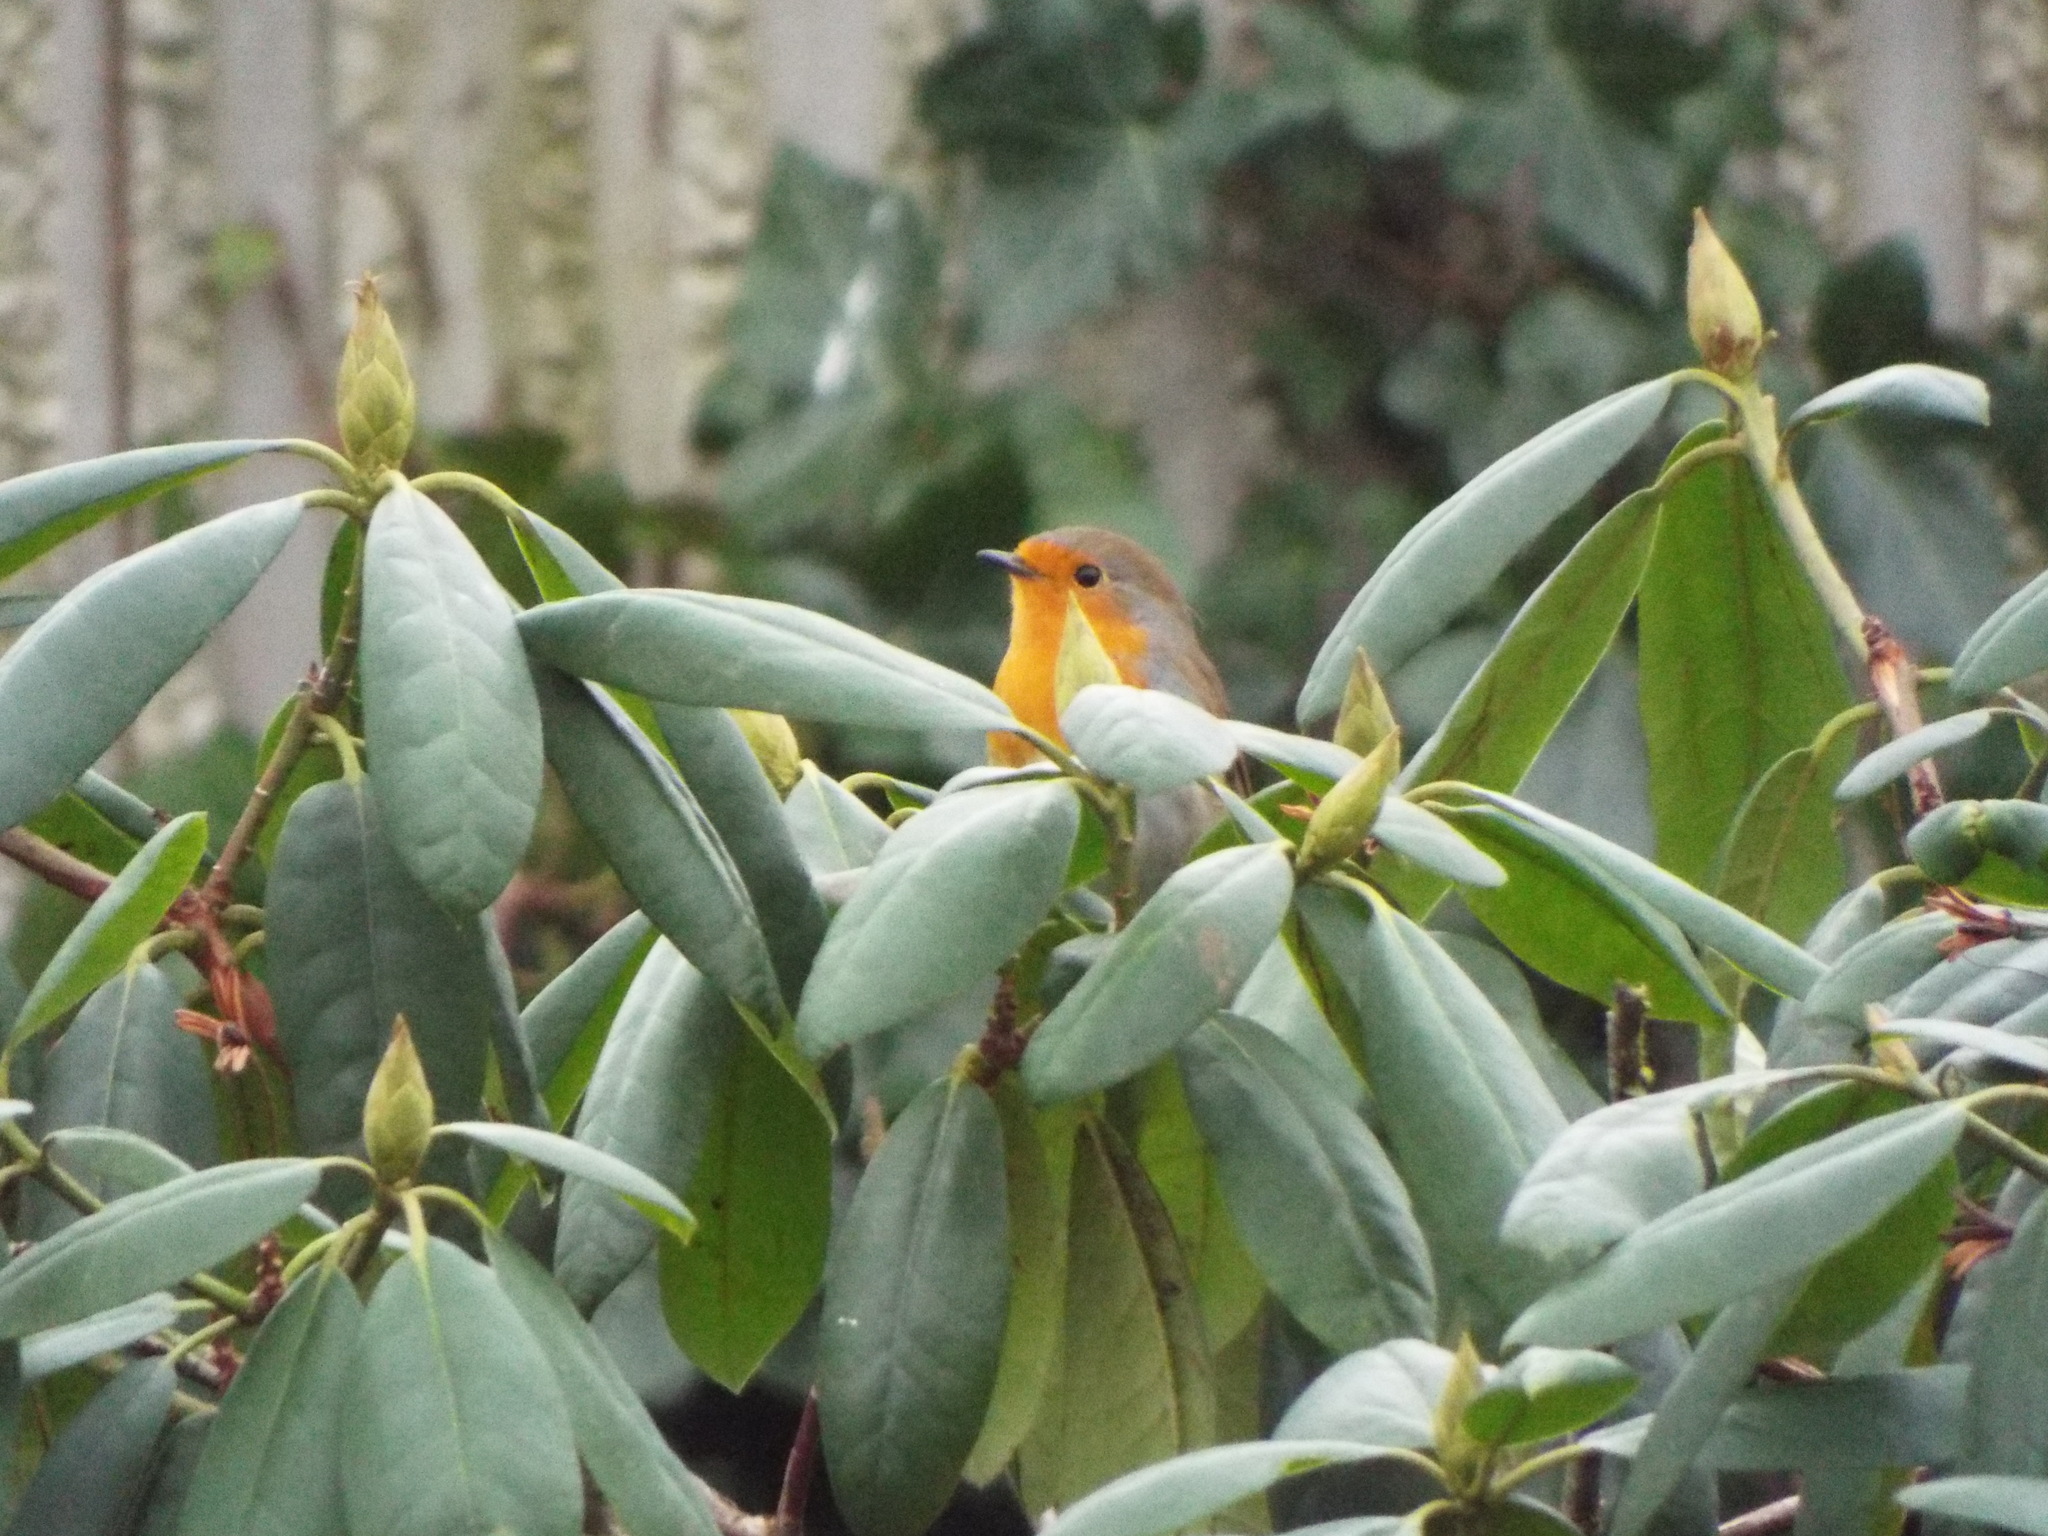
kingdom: Animalia
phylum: Chordata
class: Aves
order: Passeriformes
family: Muscicapidae
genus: Erithacus
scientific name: Erithacus rubecula
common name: European robin
